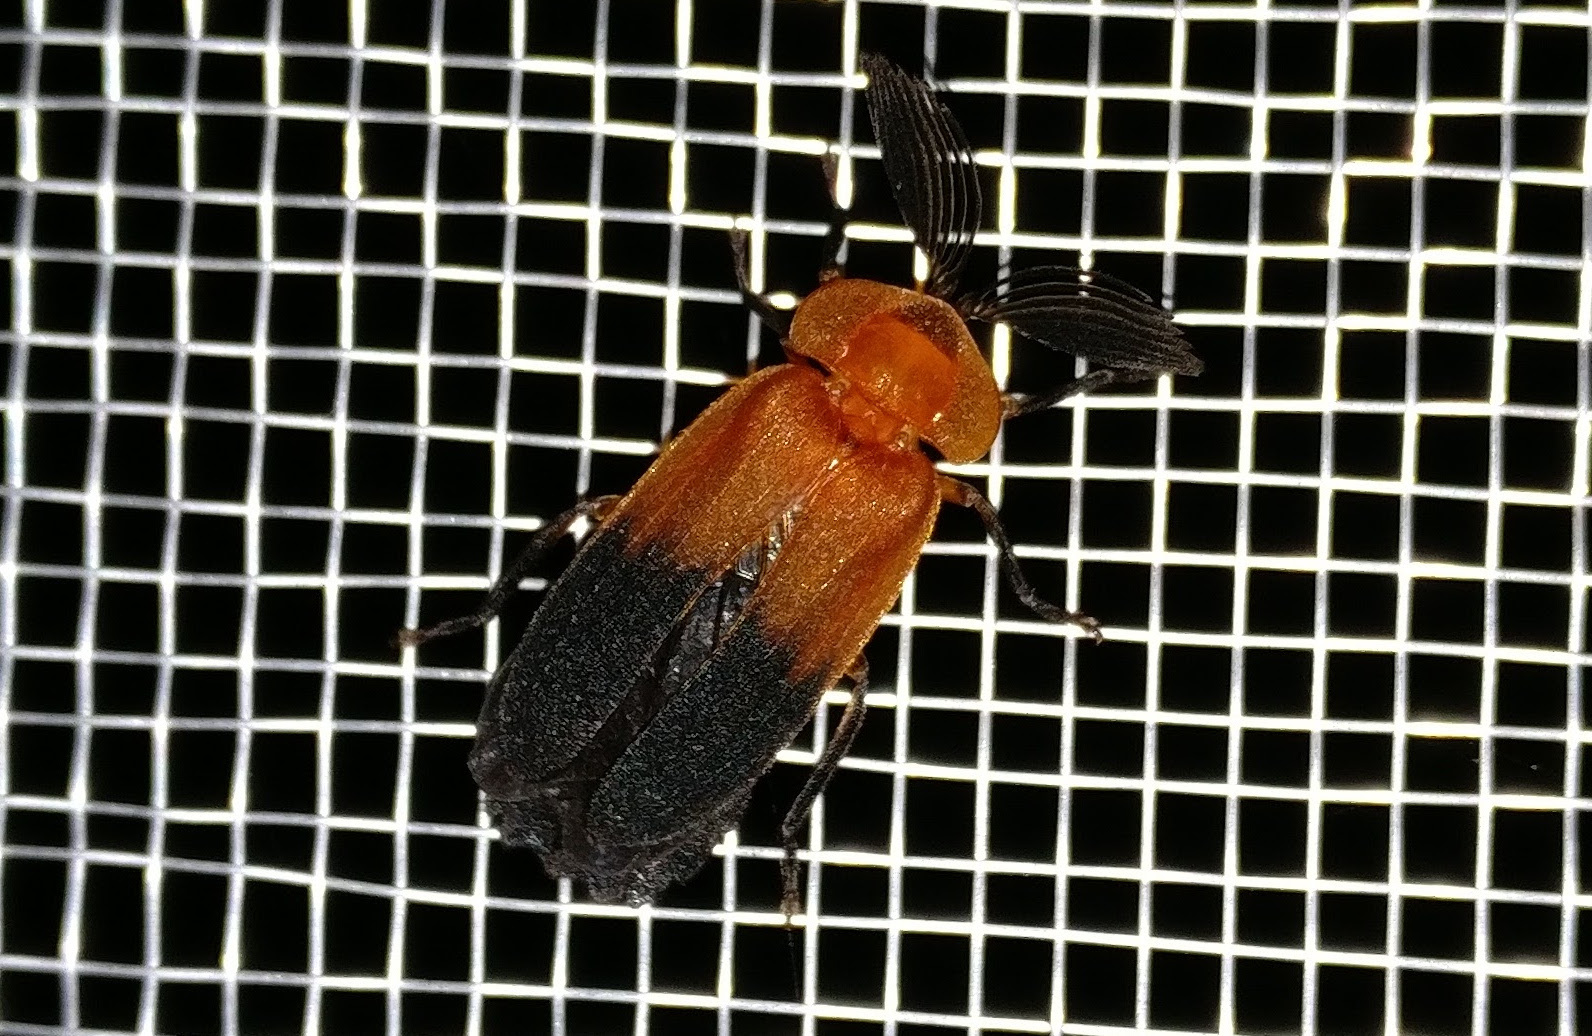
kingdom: Animalia
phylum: Arthropoda
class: Insecta
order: Coleoptera
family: Lampyridae
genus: Cladodes
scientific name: Cladodes
